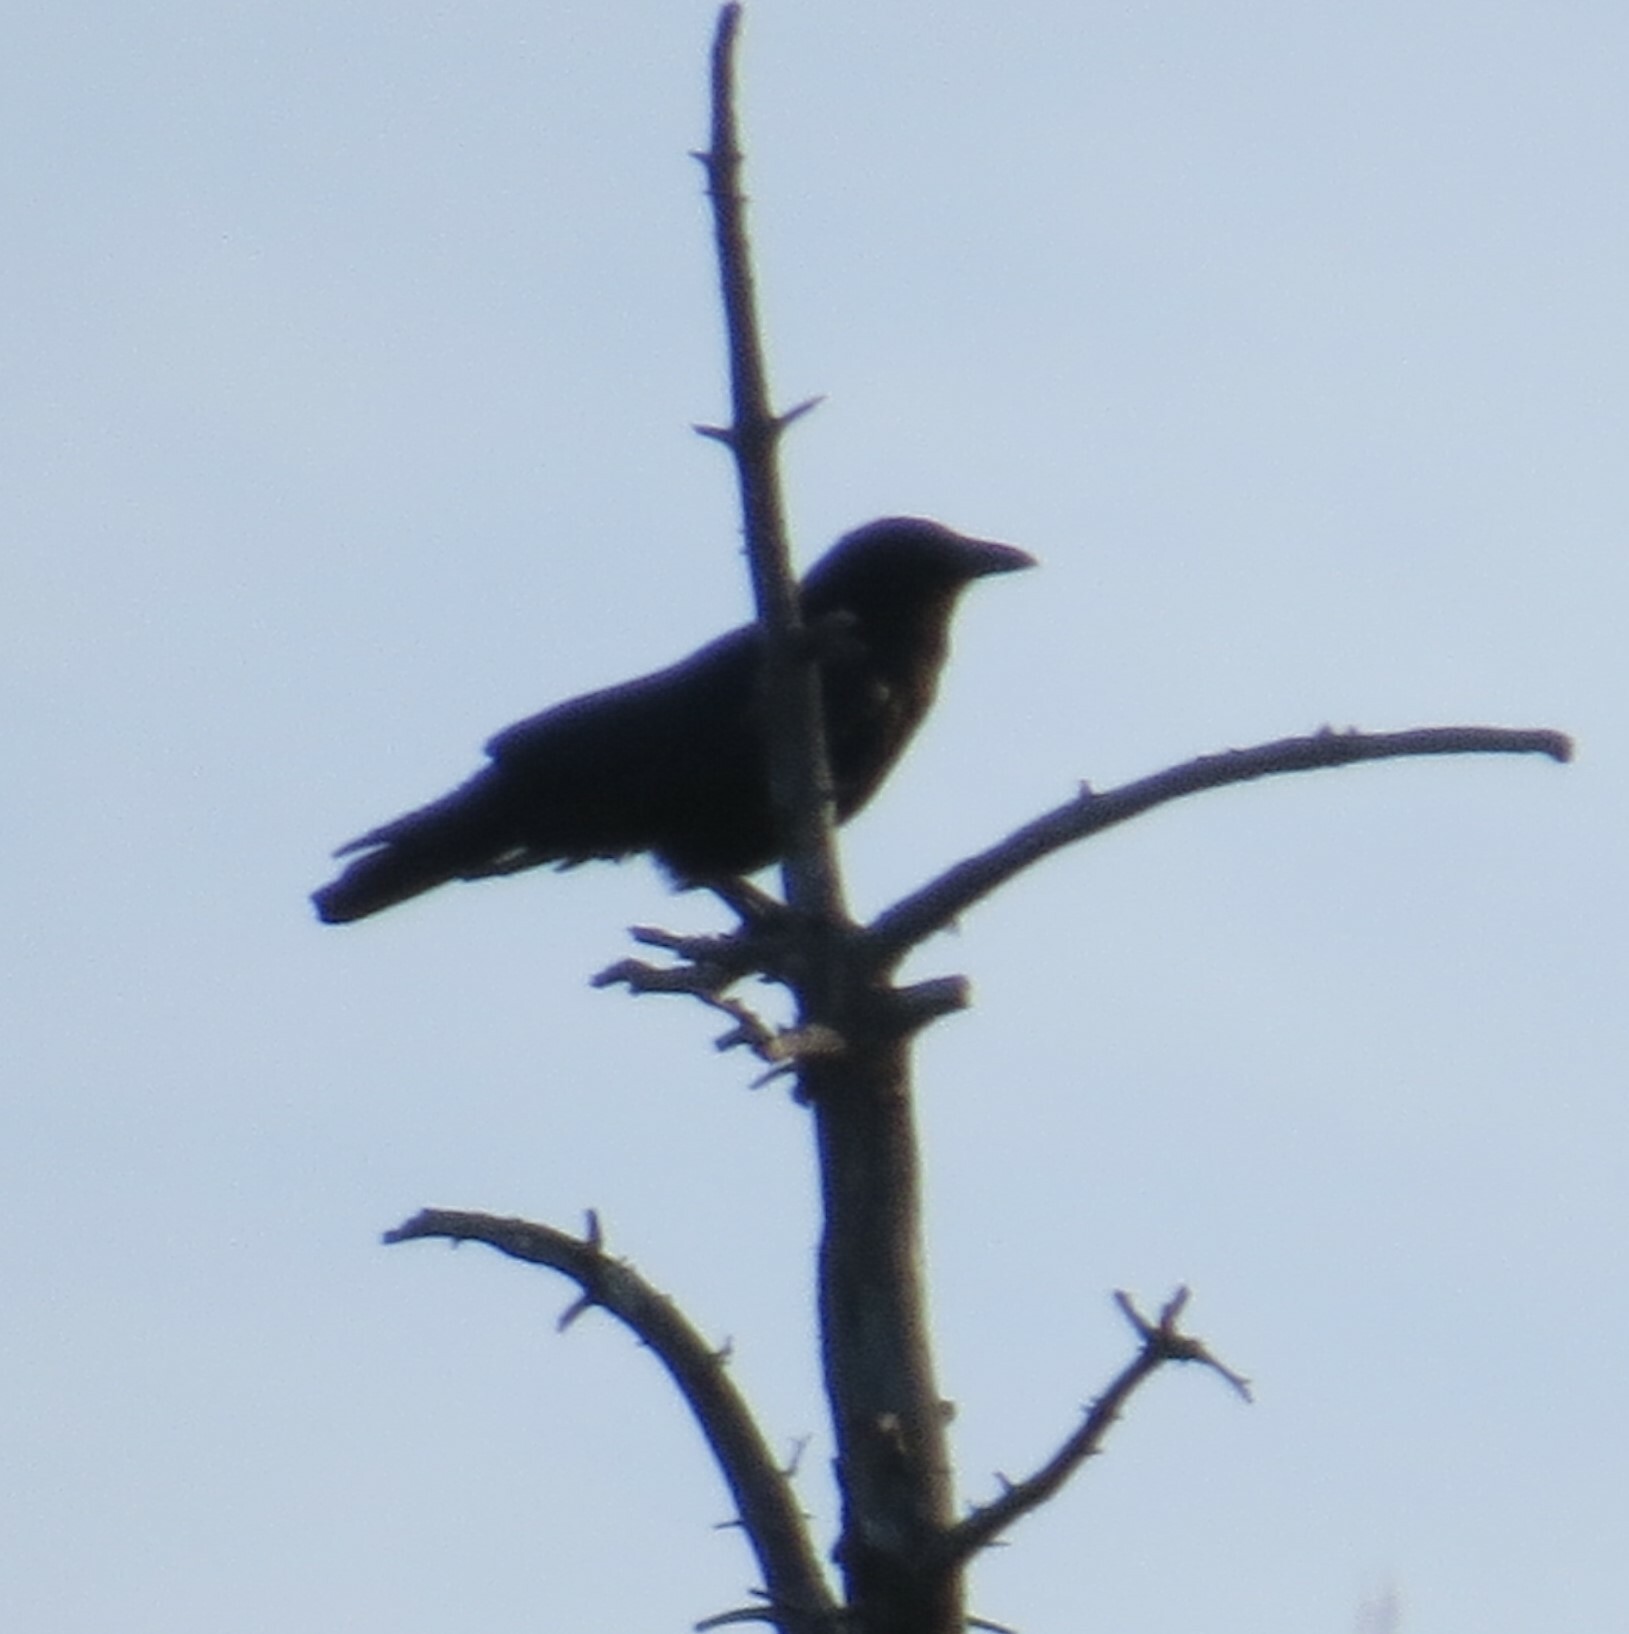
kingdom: Animalia
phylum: Chordata
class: Aves
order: Passeriformes
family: Corvidae
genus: Corvus
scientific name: Corvus brachyrhynchos
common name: American crow
